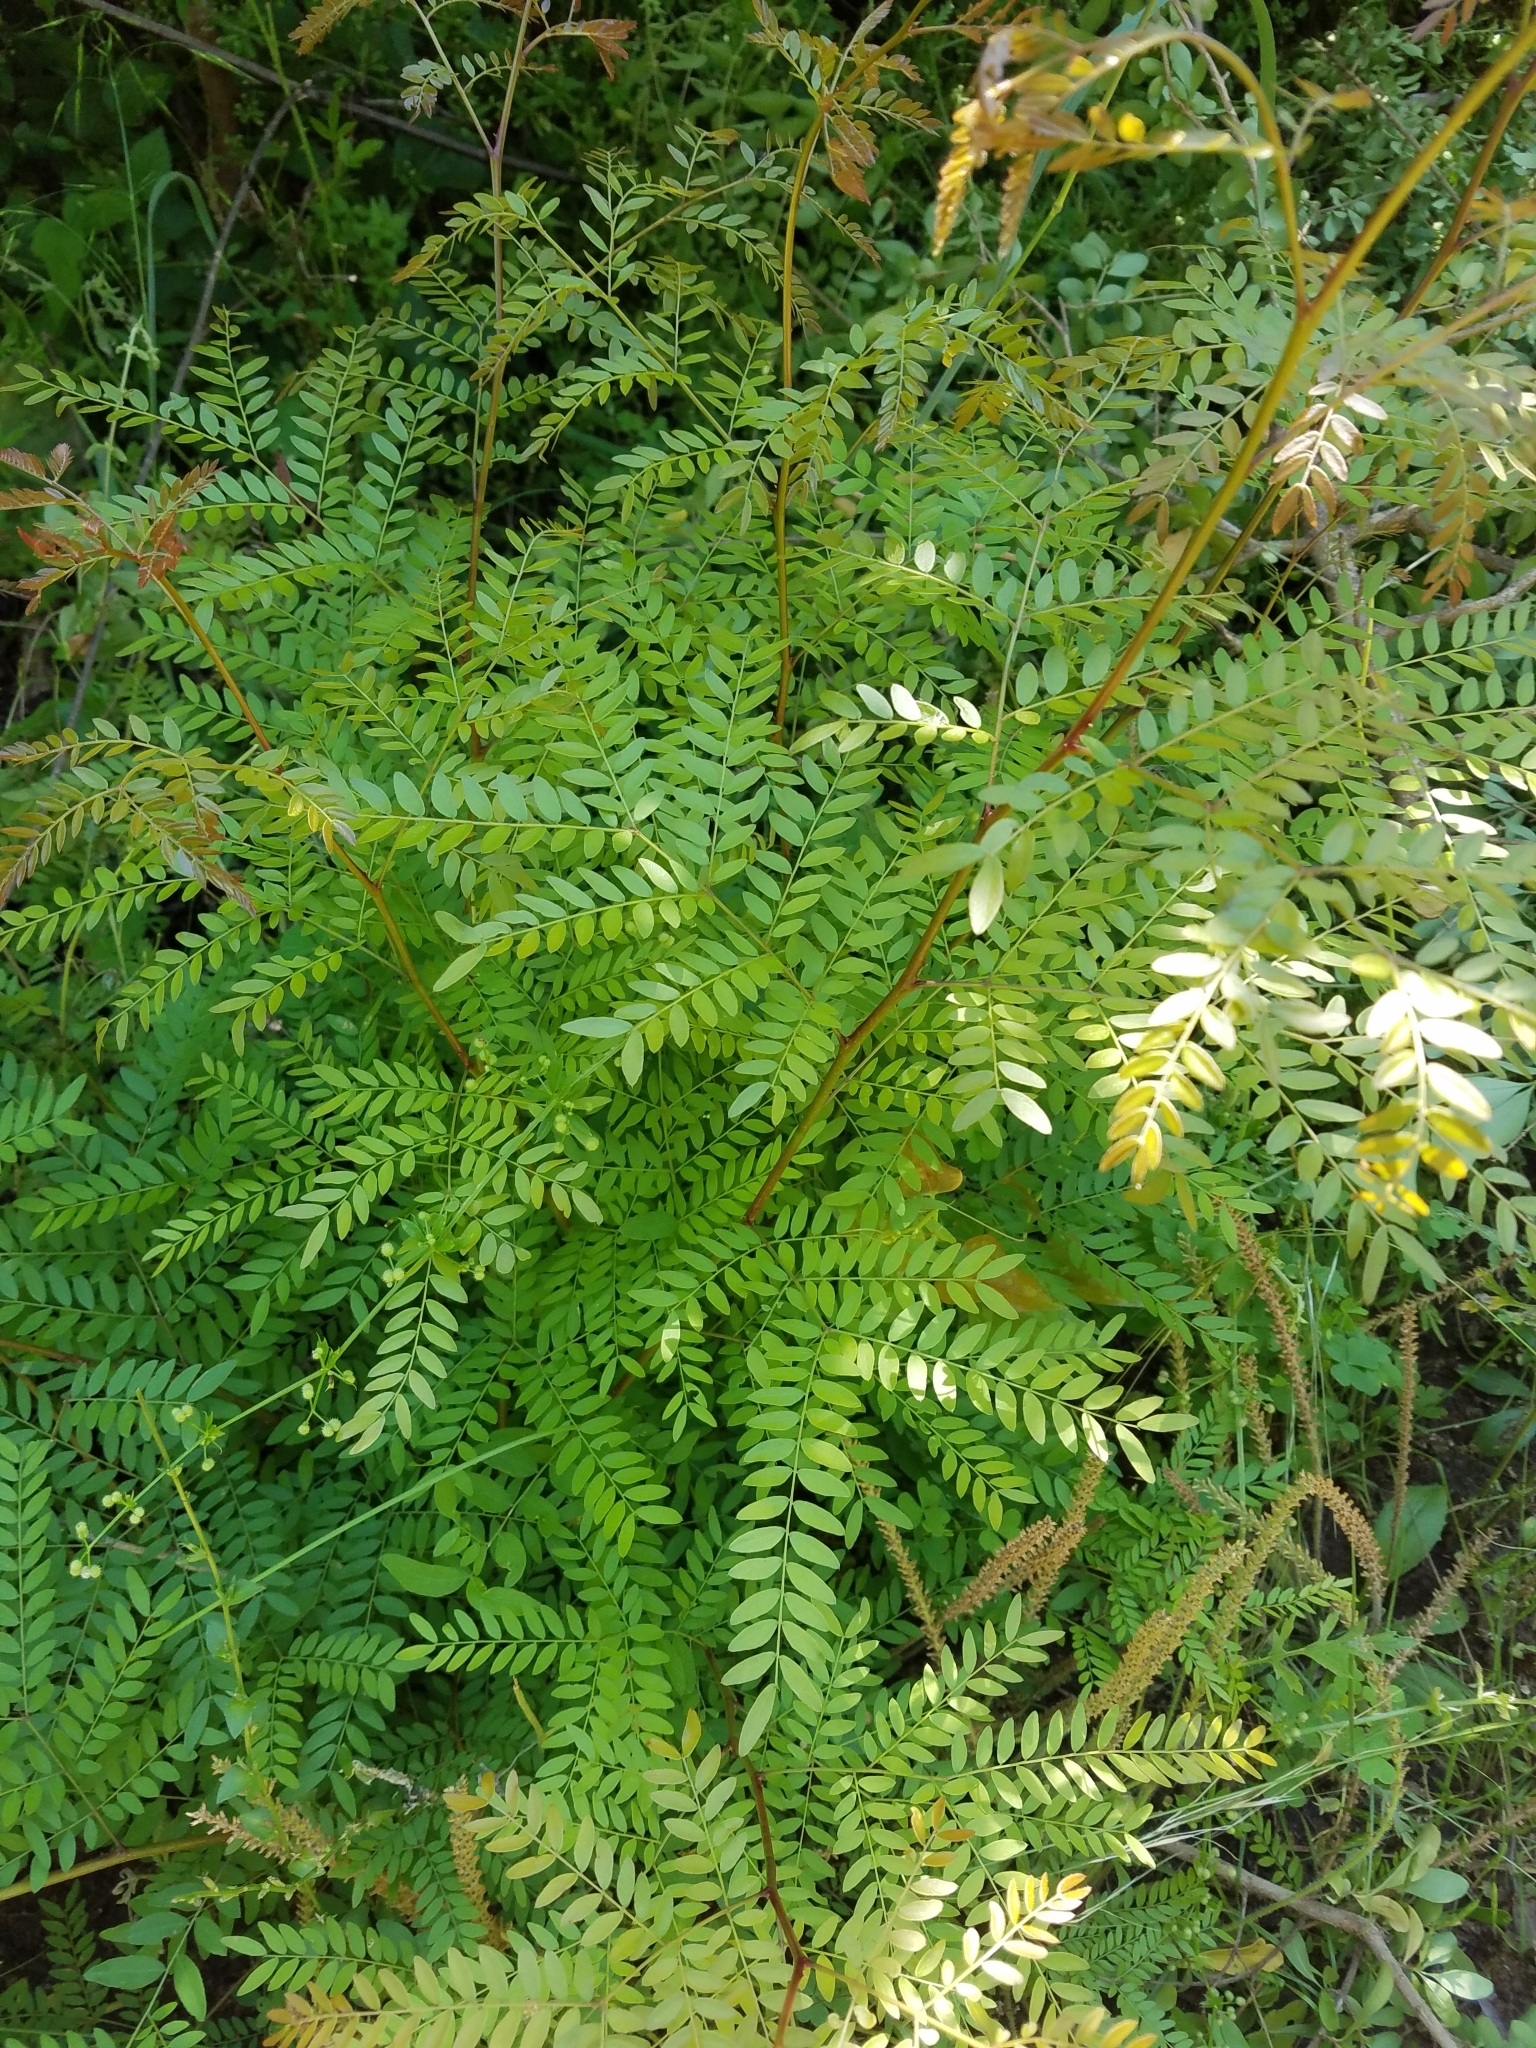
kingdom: Plantae
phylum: Tracheophyta
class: Magnoliopsida
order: Fabales
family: Fabaceae
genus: Gleditsia
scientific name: Gleditsia triacanthos
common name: Common honeylocust
